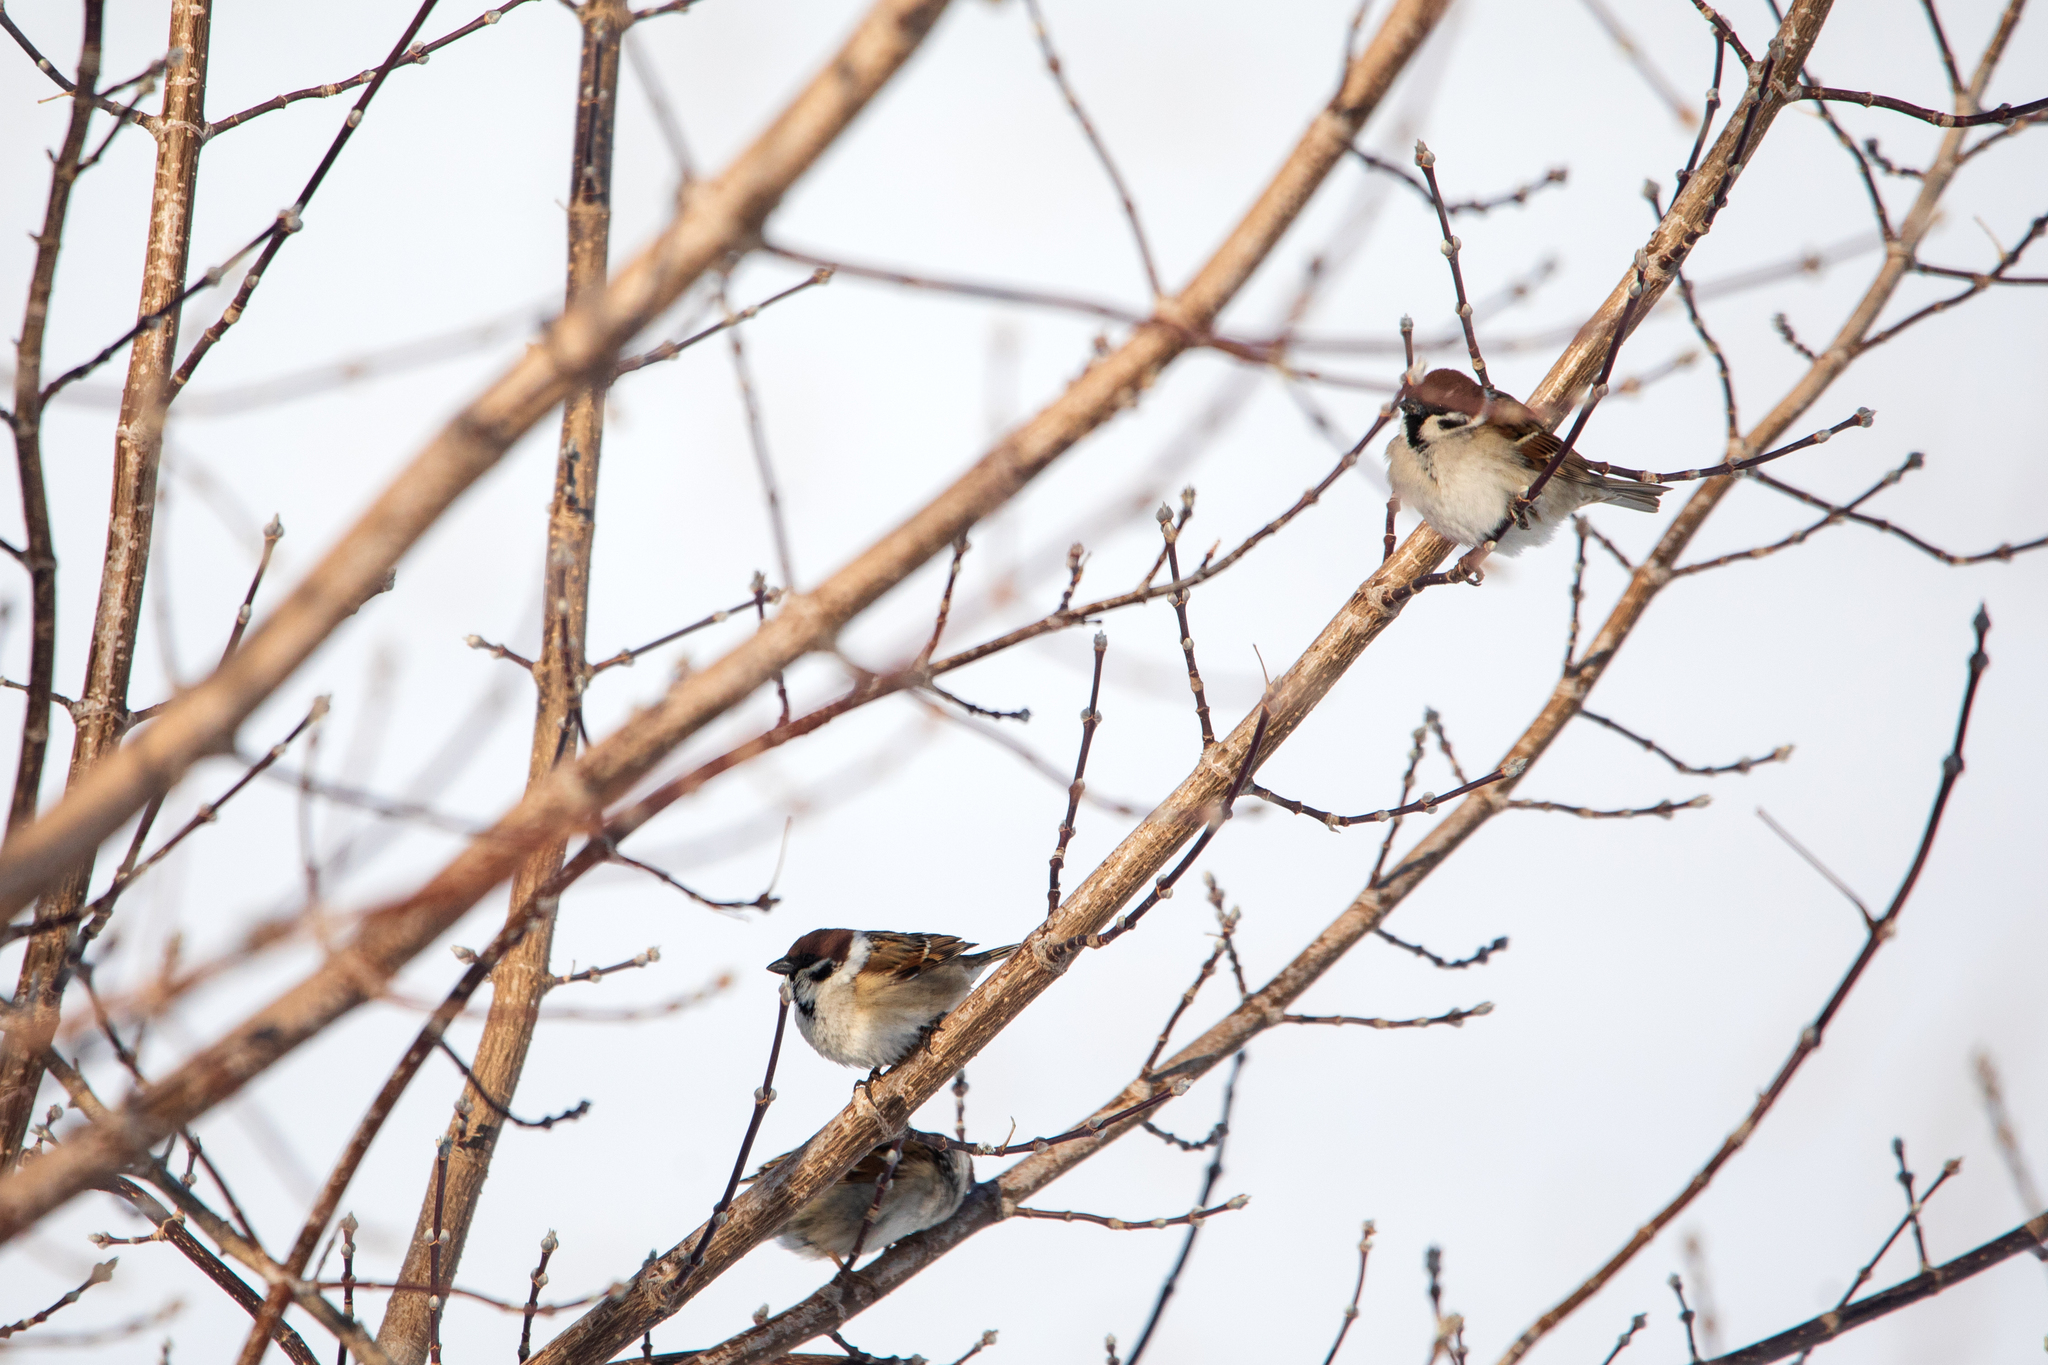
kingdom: Animalia
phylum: Chordata
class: Aves
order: Passeriformes
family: Passeridae
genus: Passer
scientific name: Passer montanus
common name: Eurasian tree sparrow
